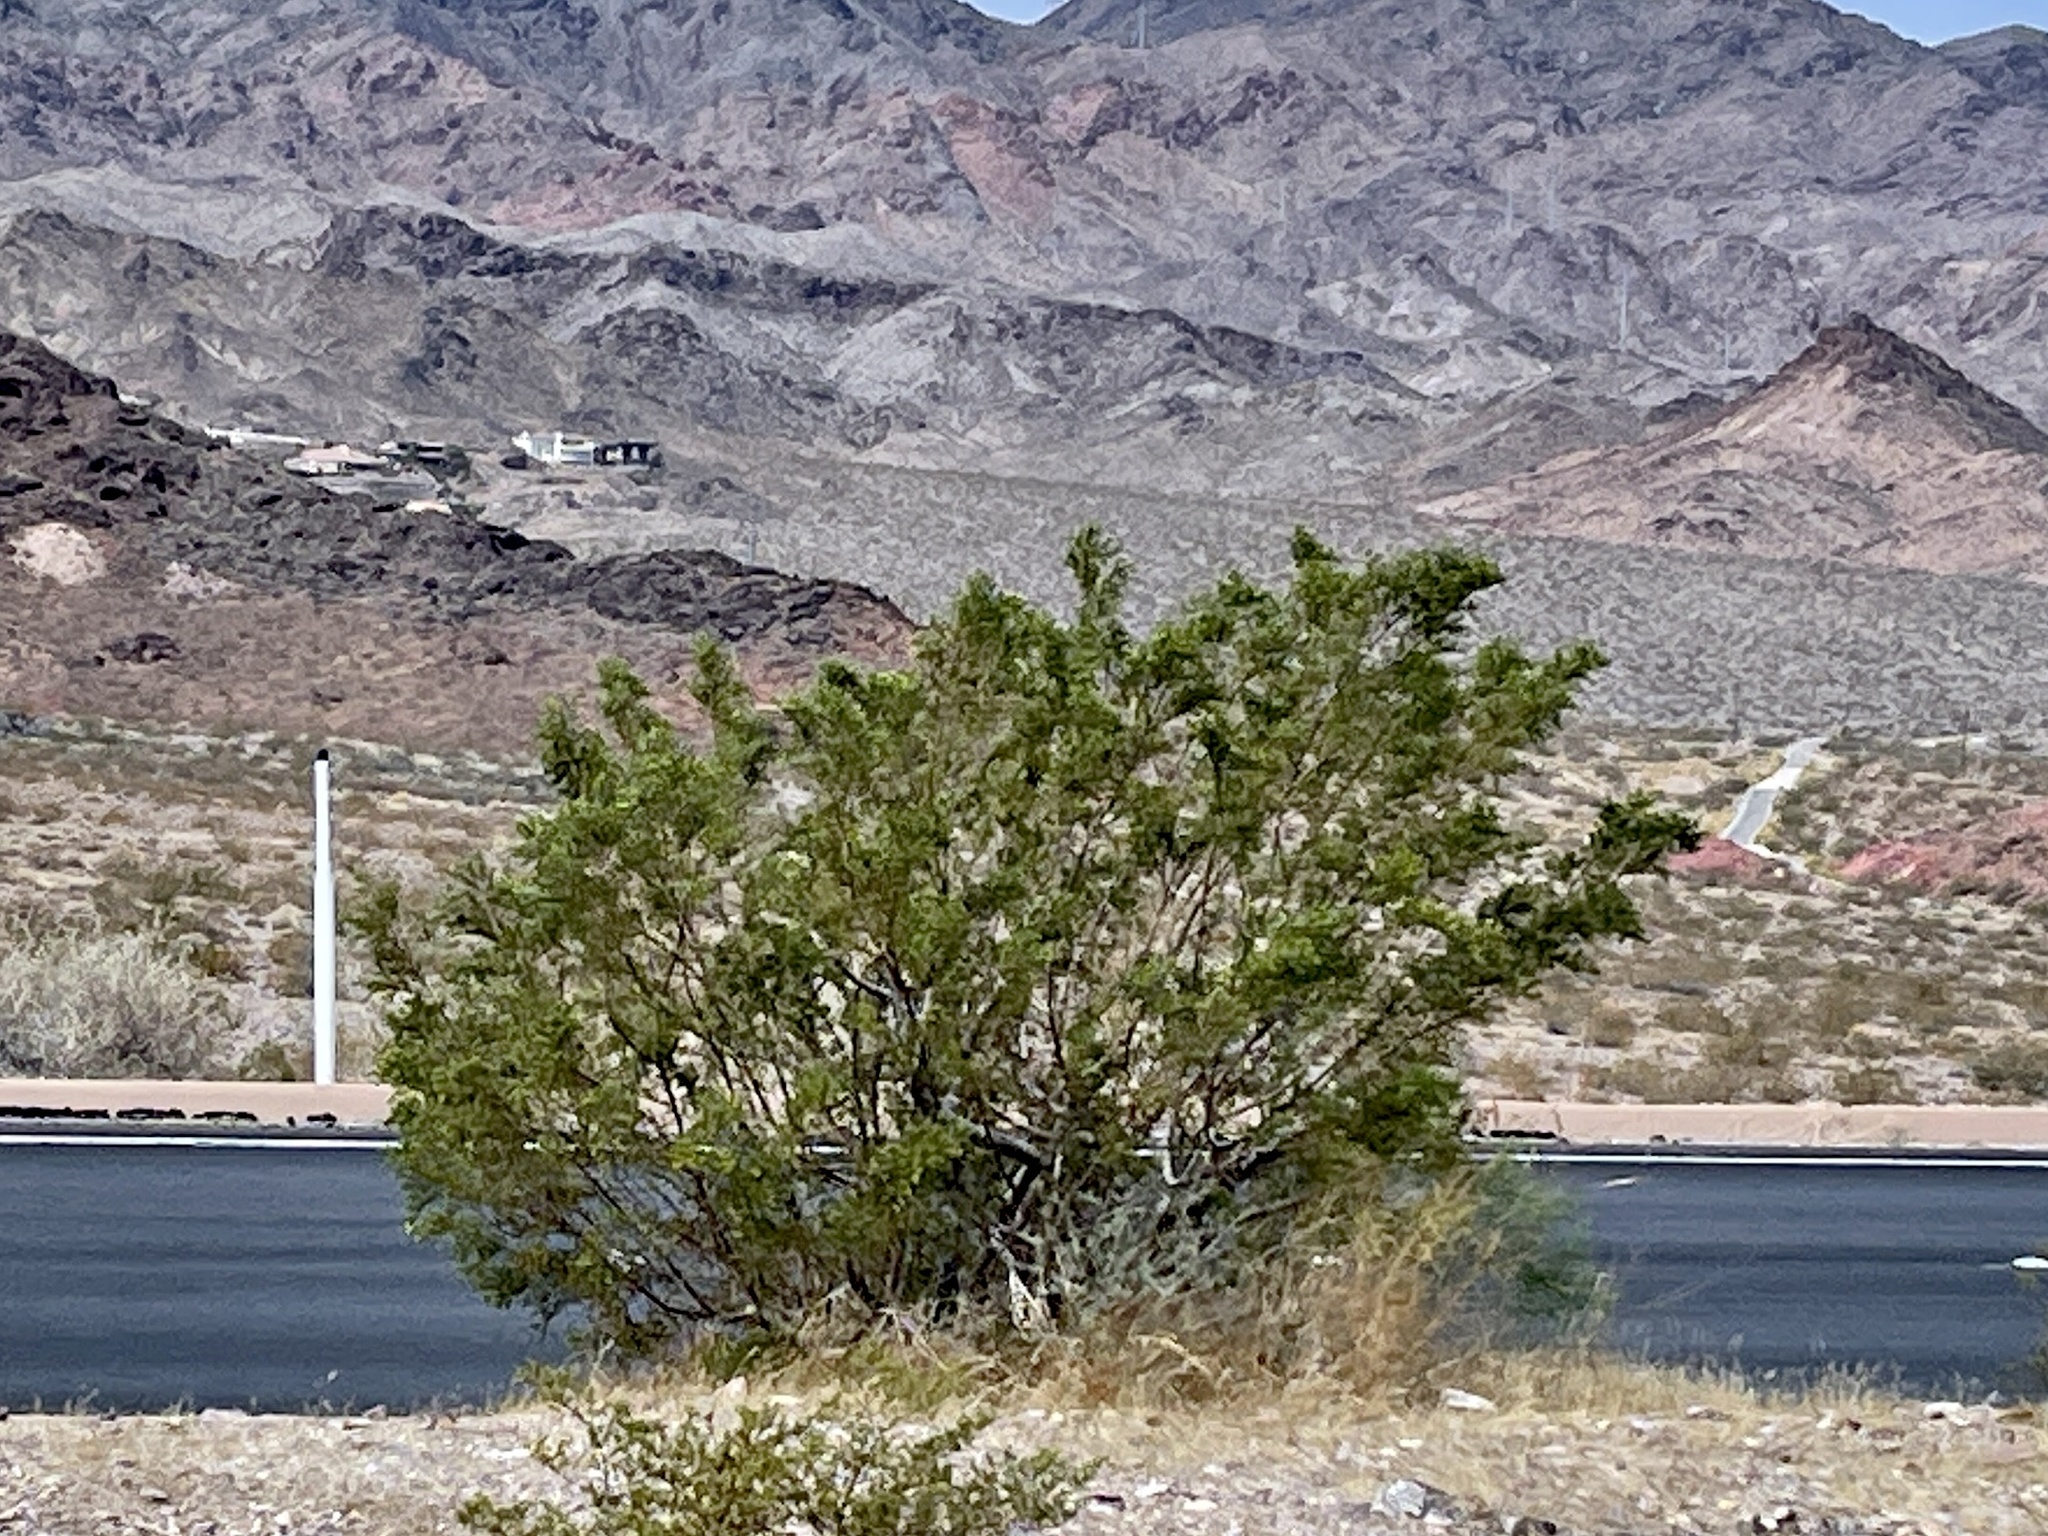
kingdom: Plantae
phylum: Tracheophyta
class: Magnoliopsida
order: Zygophyllales
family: Zygophyllaceae
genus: Larrea
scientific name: Larrea tridentata
